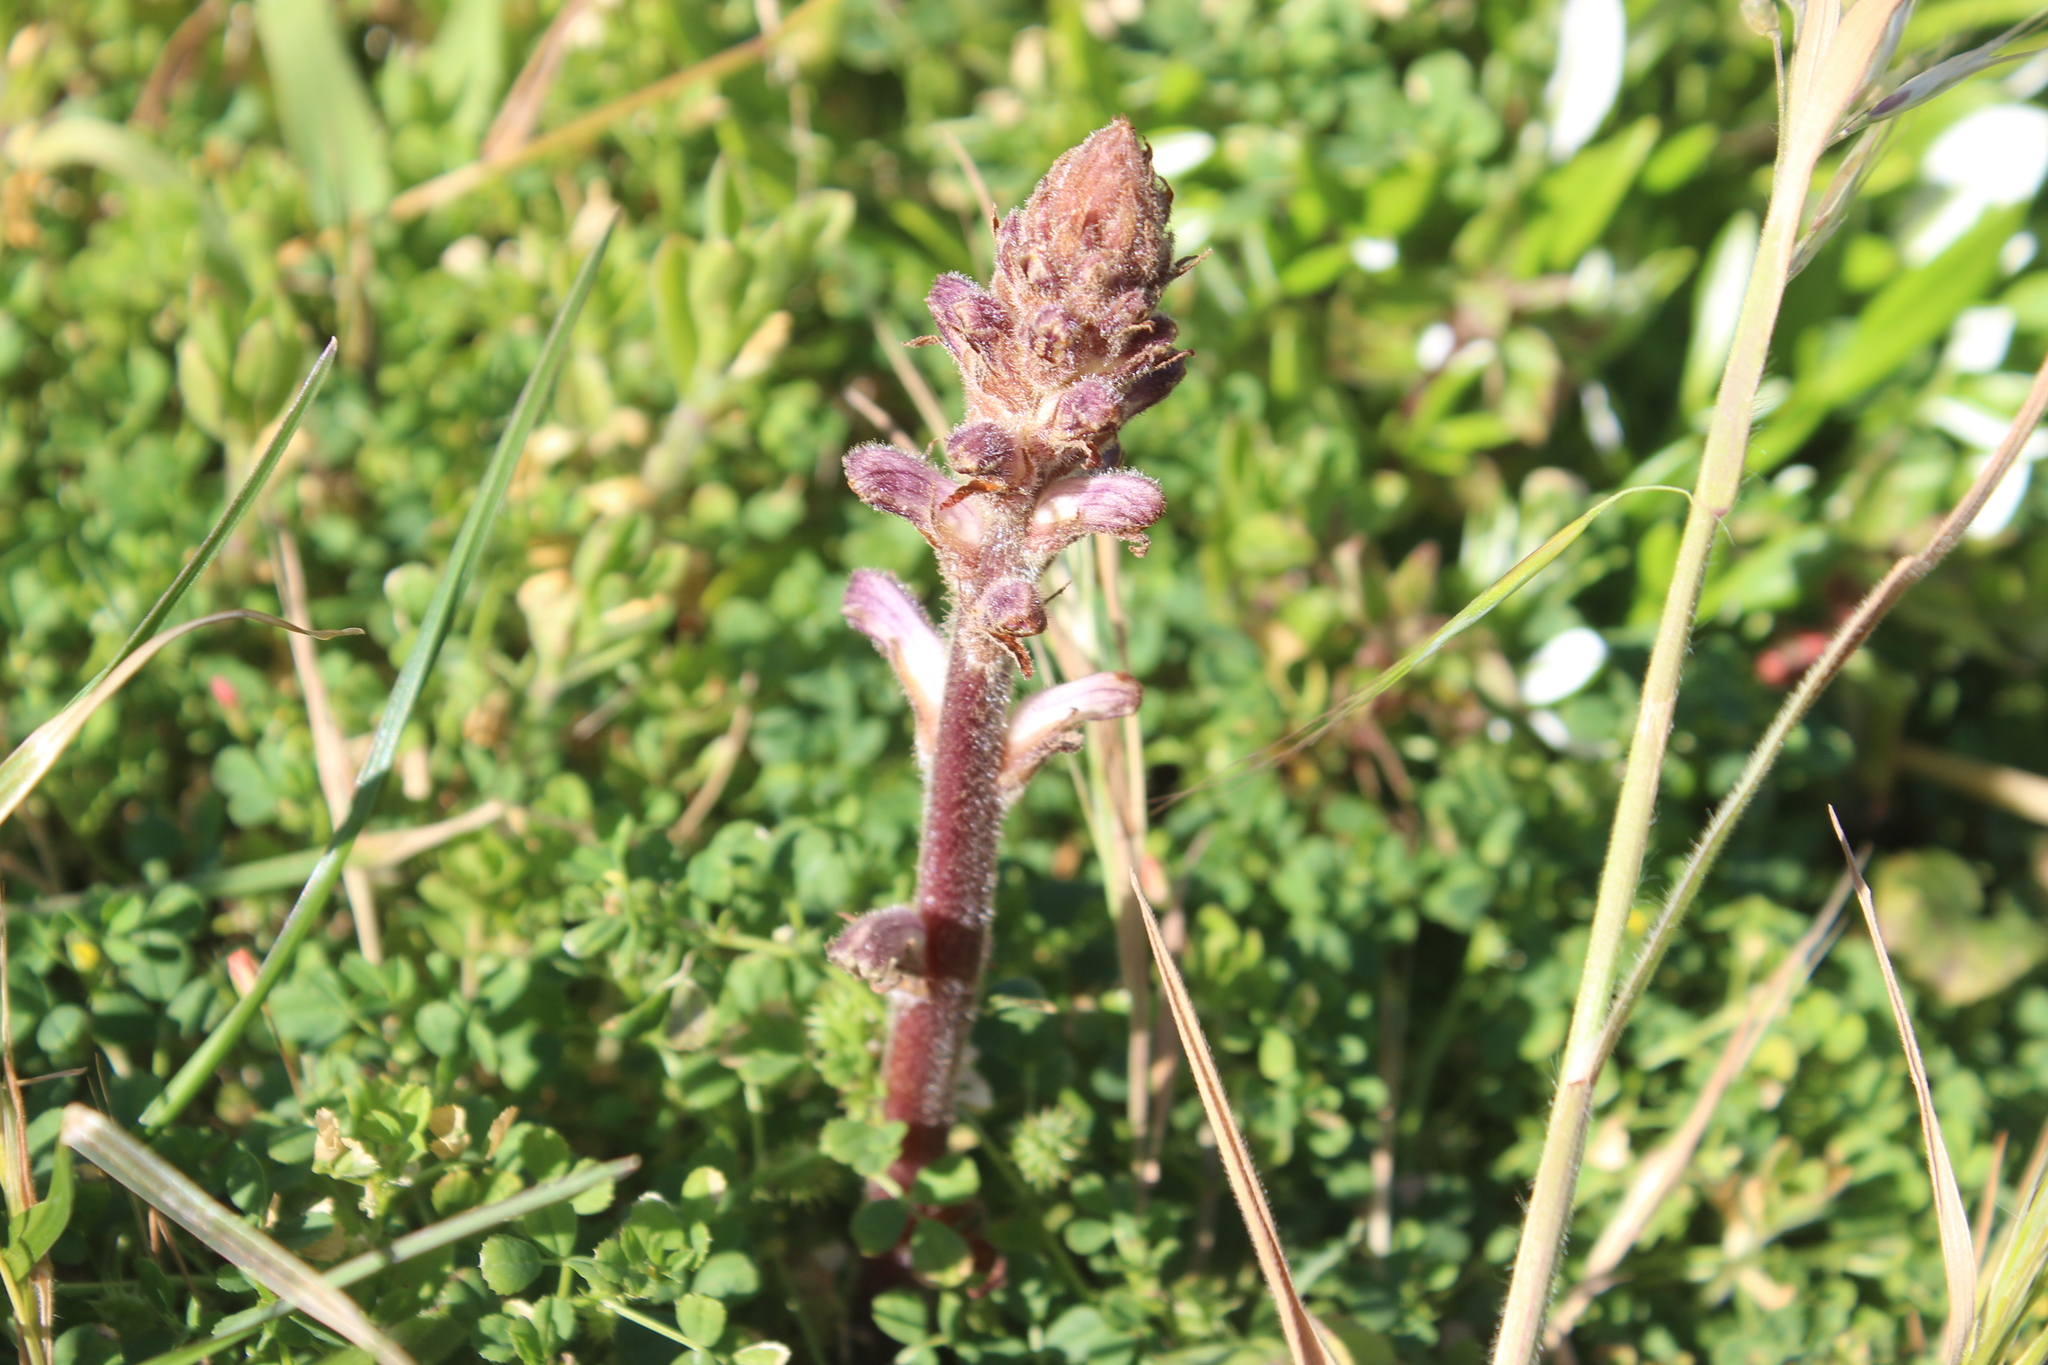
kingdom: Plantae
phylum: Tracheophyta
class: Magnoliopsida
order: Lamiales
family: Orobanchaceae
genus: Orobanche
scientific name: Orobanche minor
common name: Common broomrape
